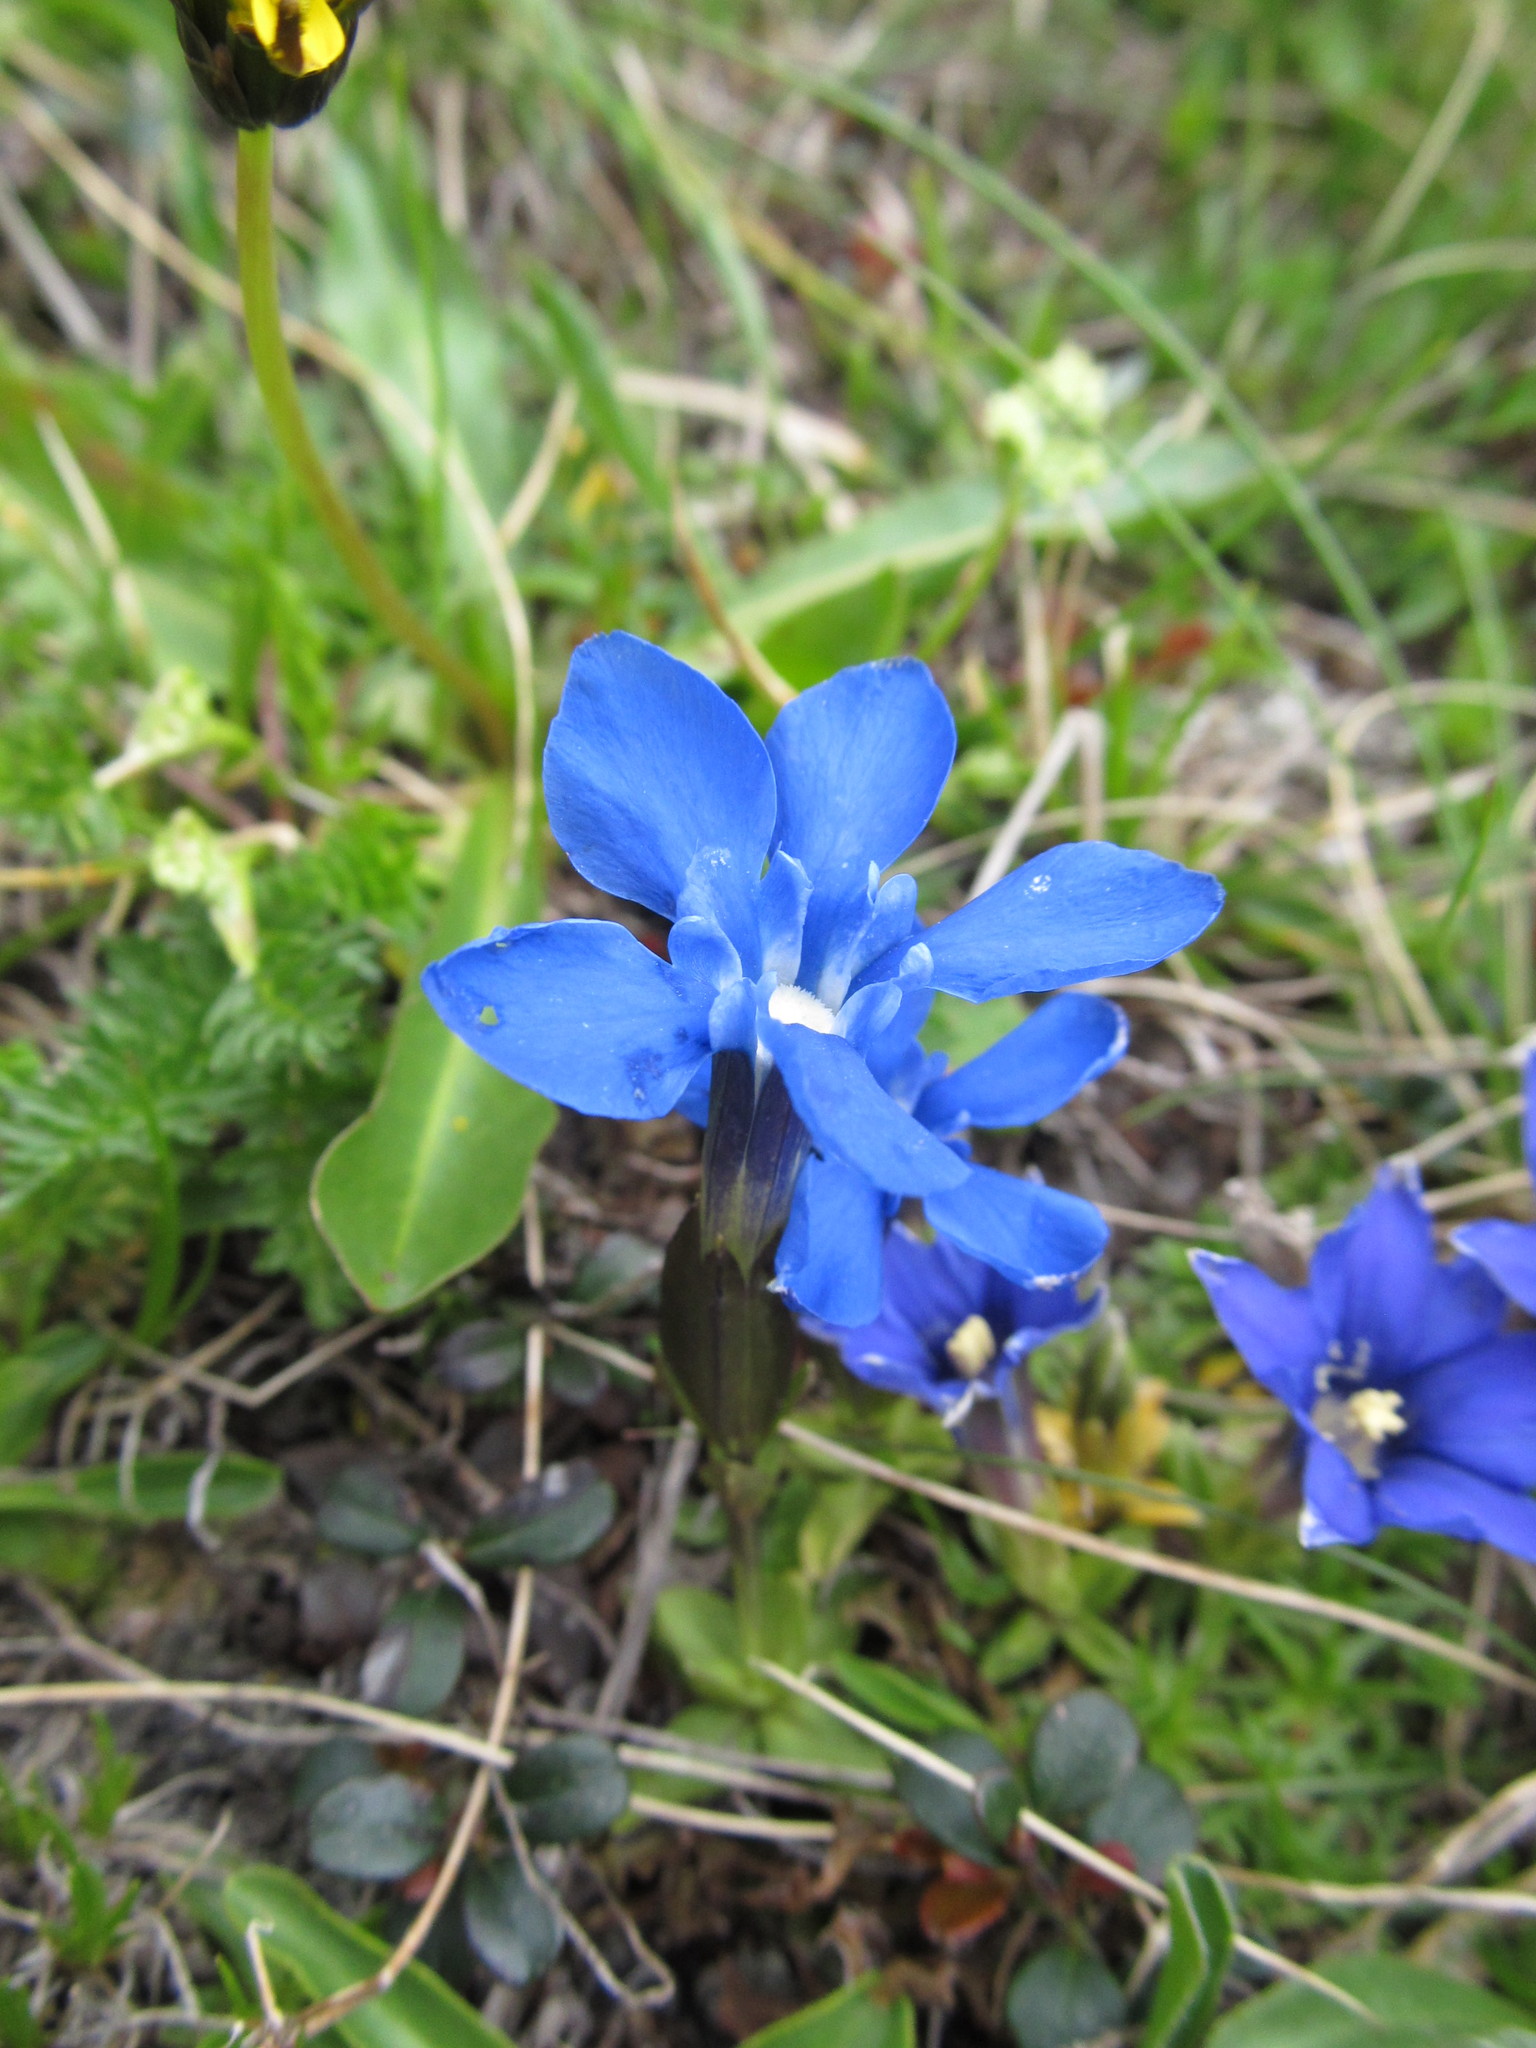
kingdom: Plantae
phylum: Tracheophyta
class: Magnoliopsida
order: Gentianales
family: Gentianaceae
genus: Gentiana
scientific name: Gentiana verna
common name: Spring gentian
